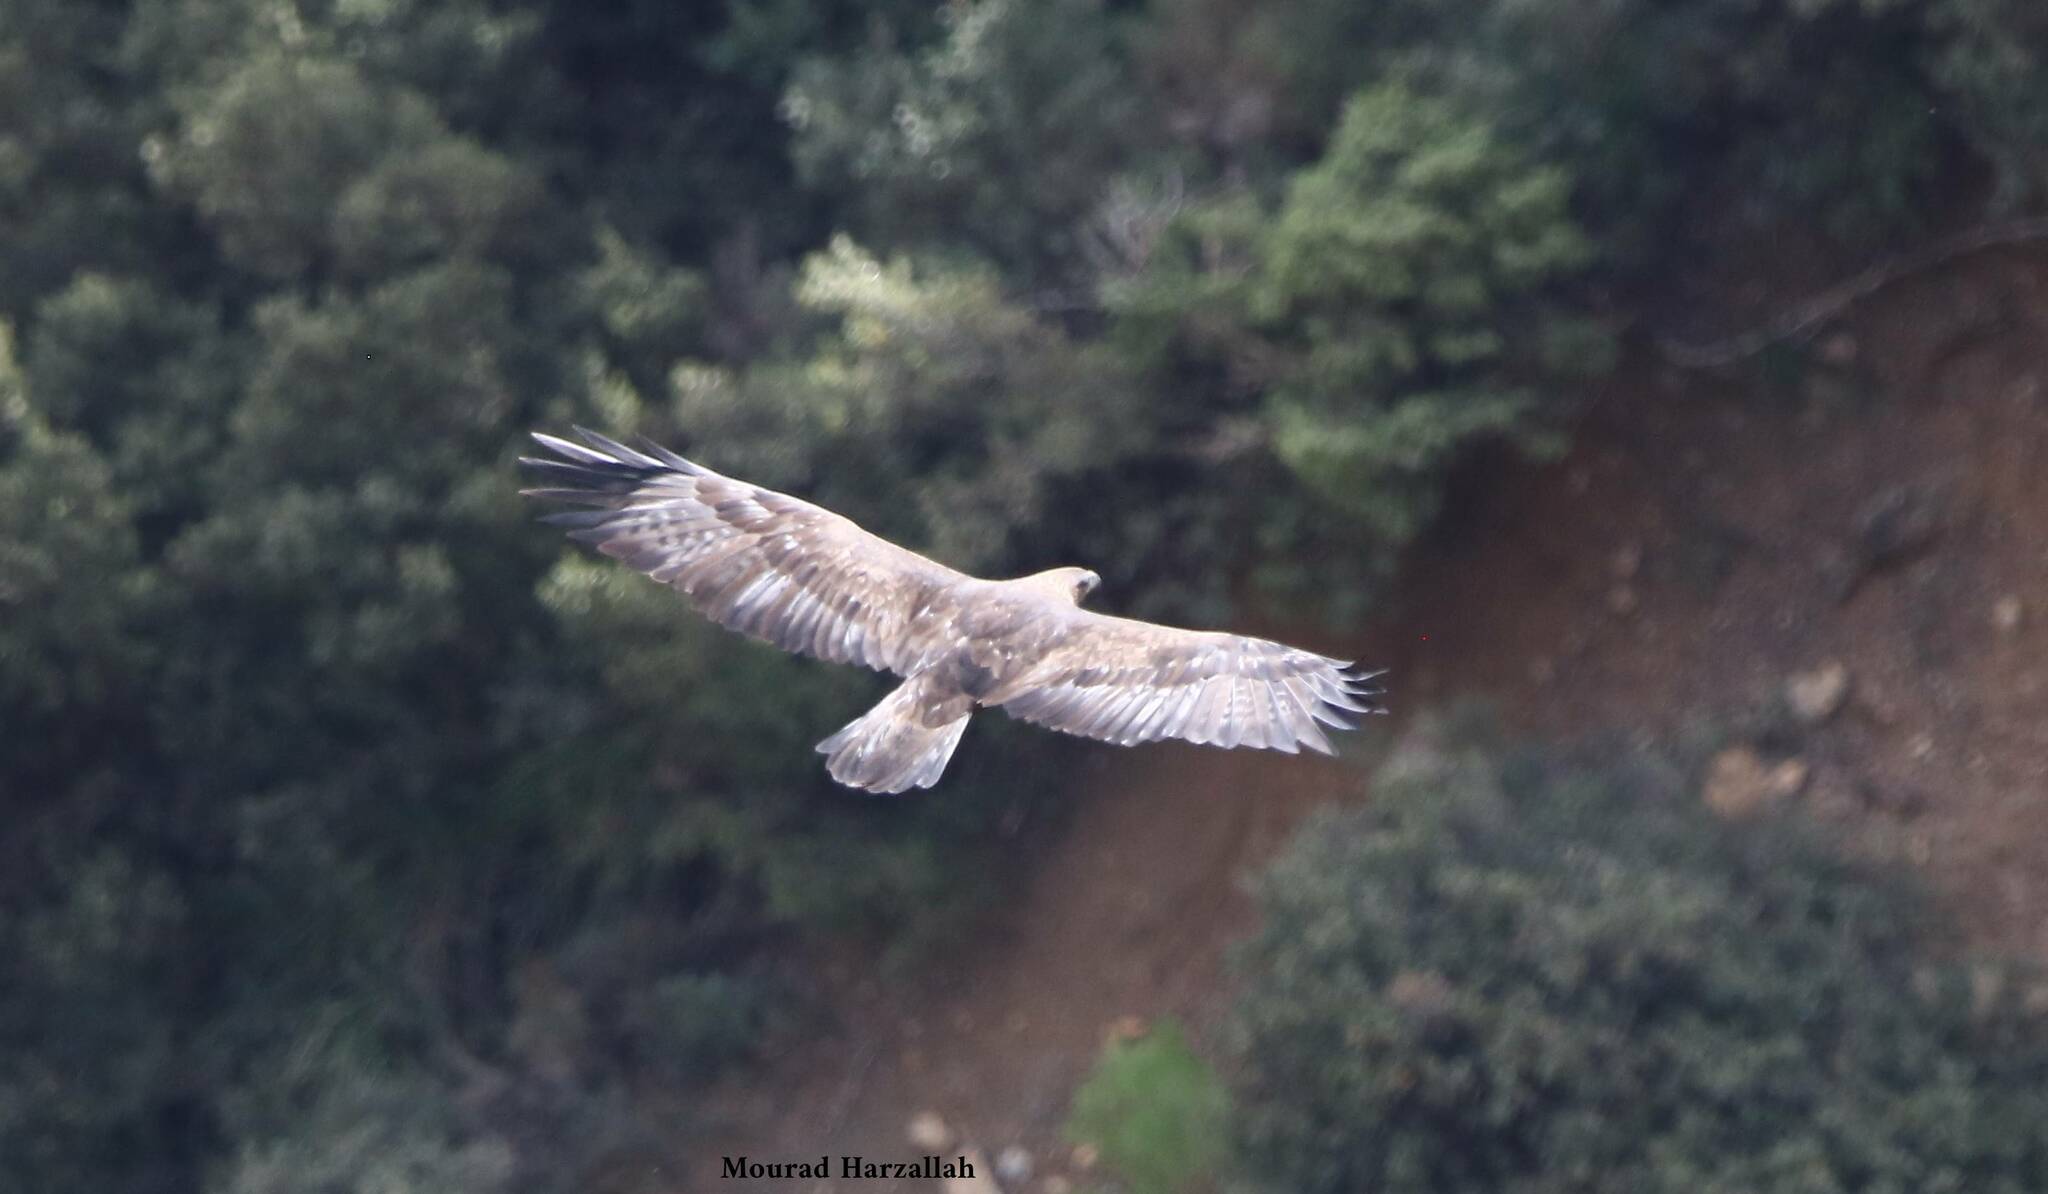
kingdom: Animalia
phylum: Chordata
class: Aves
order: Accipitriformes
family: Accipitridae
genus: Aquila
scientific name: Aquila chrysaetos
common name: Golden eagle
